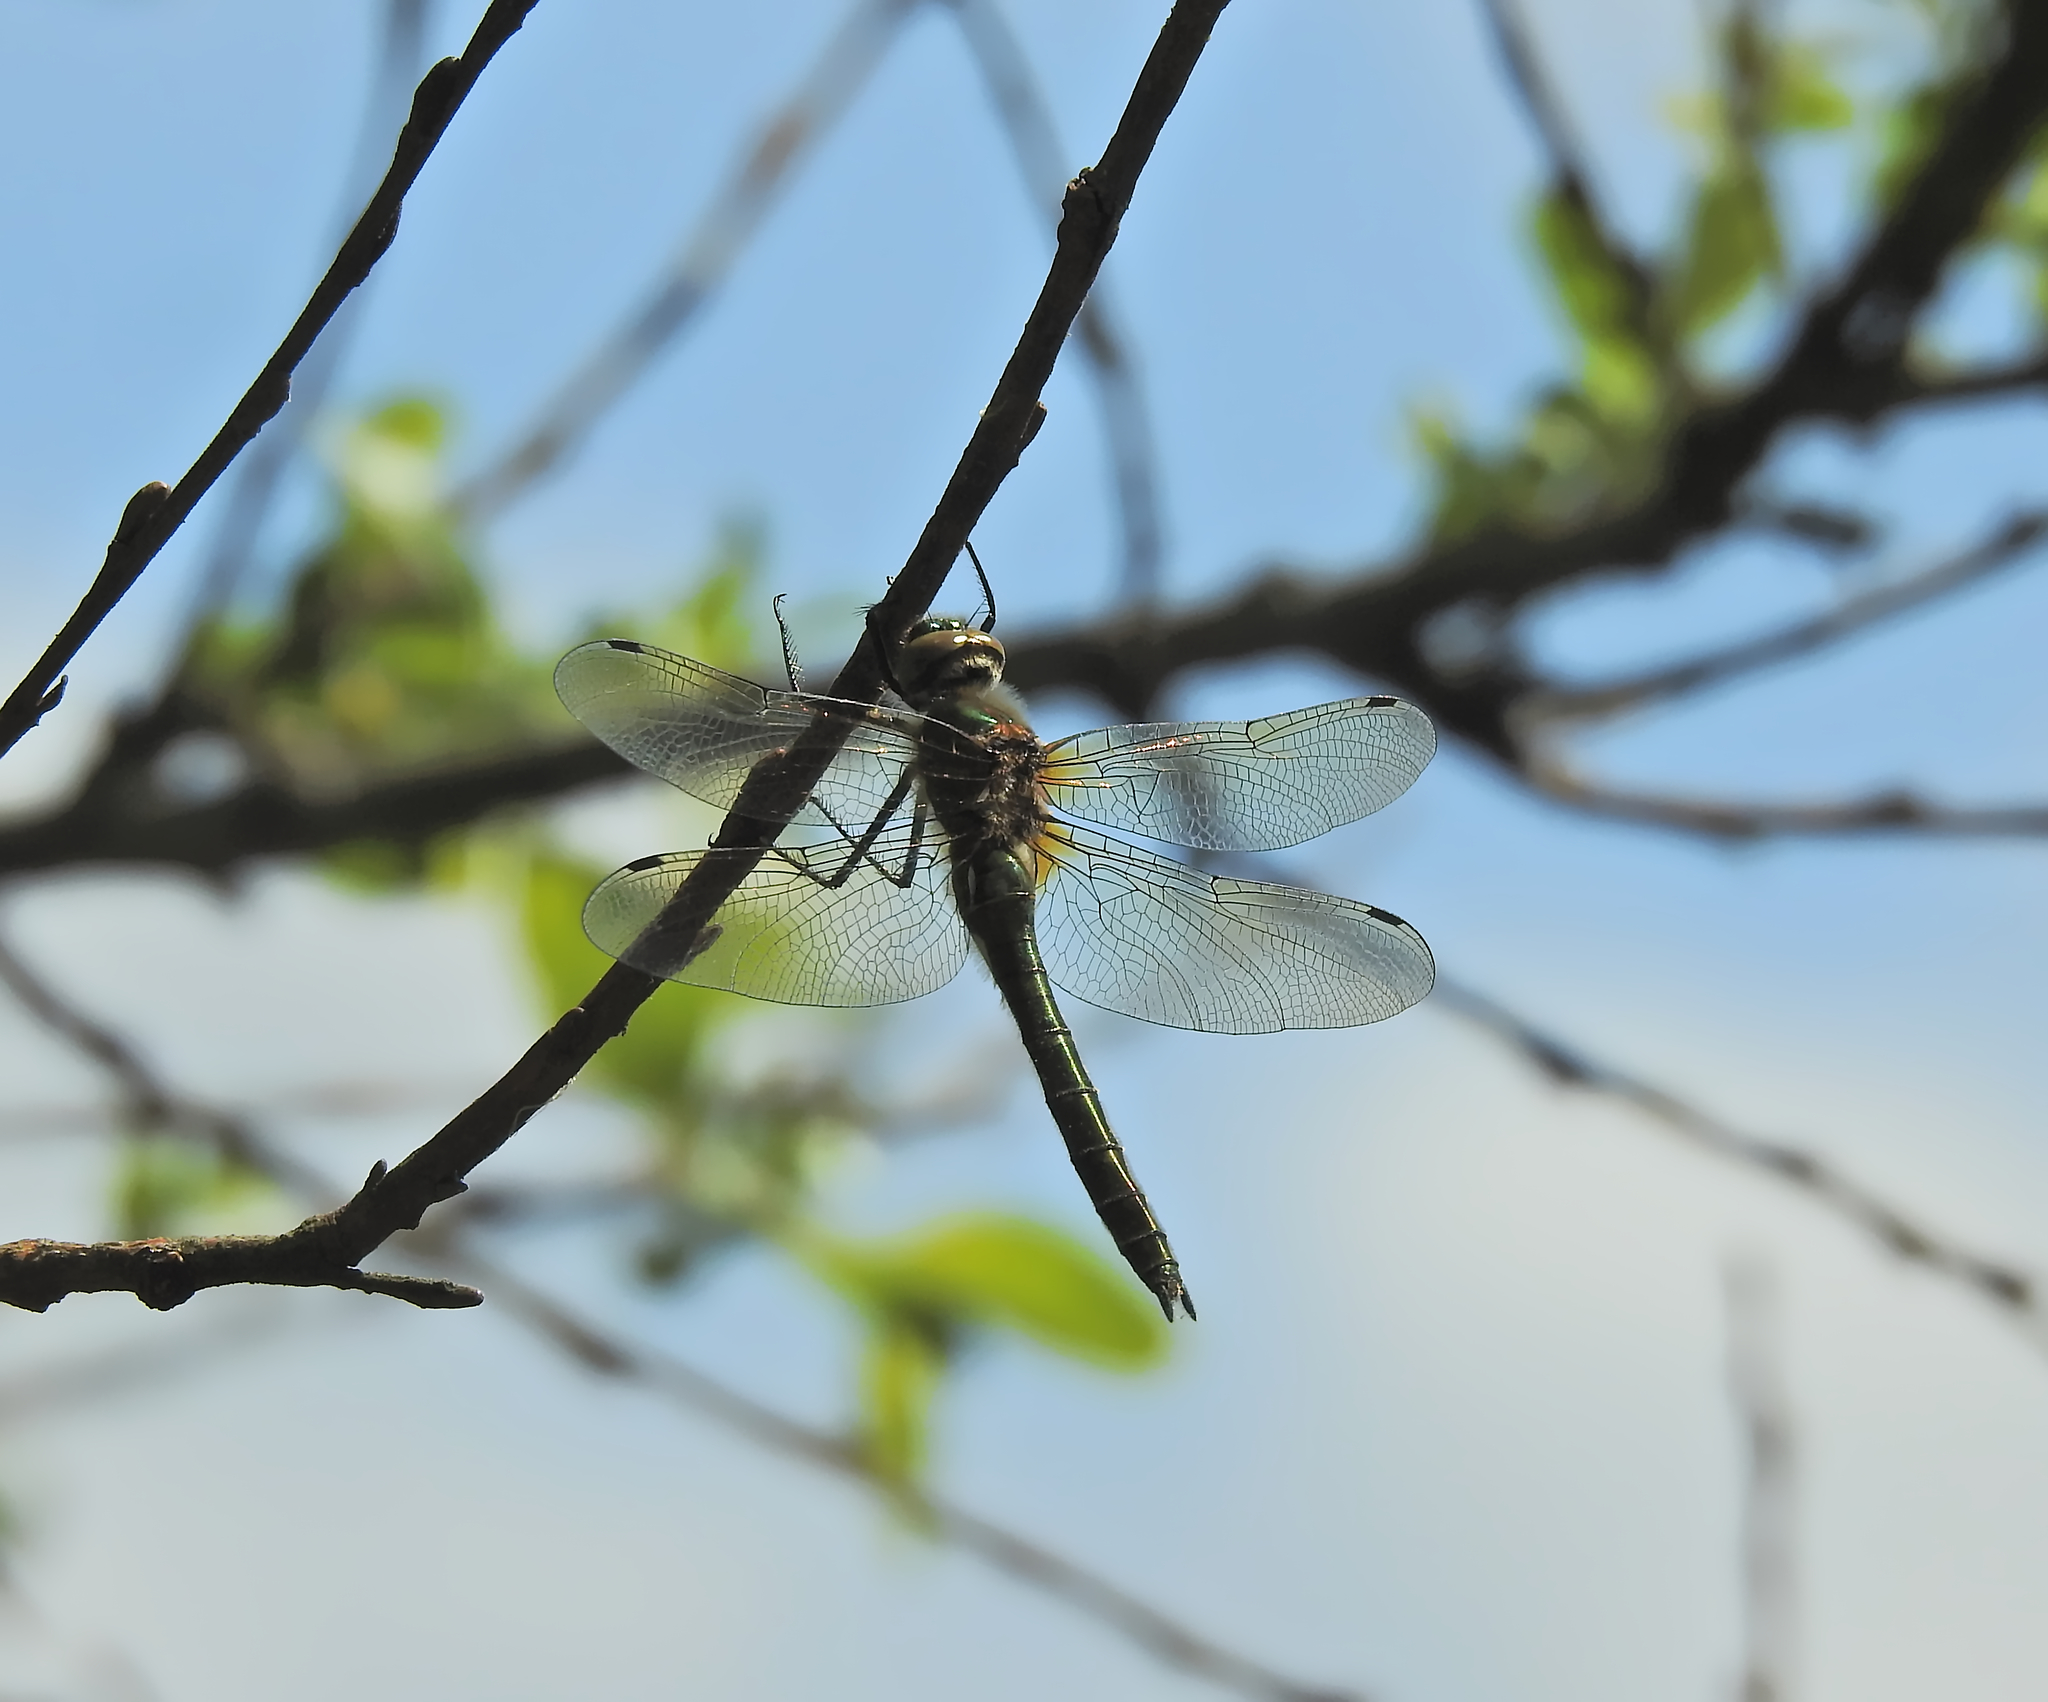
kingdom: Animalia
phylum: Arthropoda
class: Insecta
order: Odonata
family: Corduliidae
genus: Cordulia
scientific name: Cordulia aenea
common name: Downy emerald
